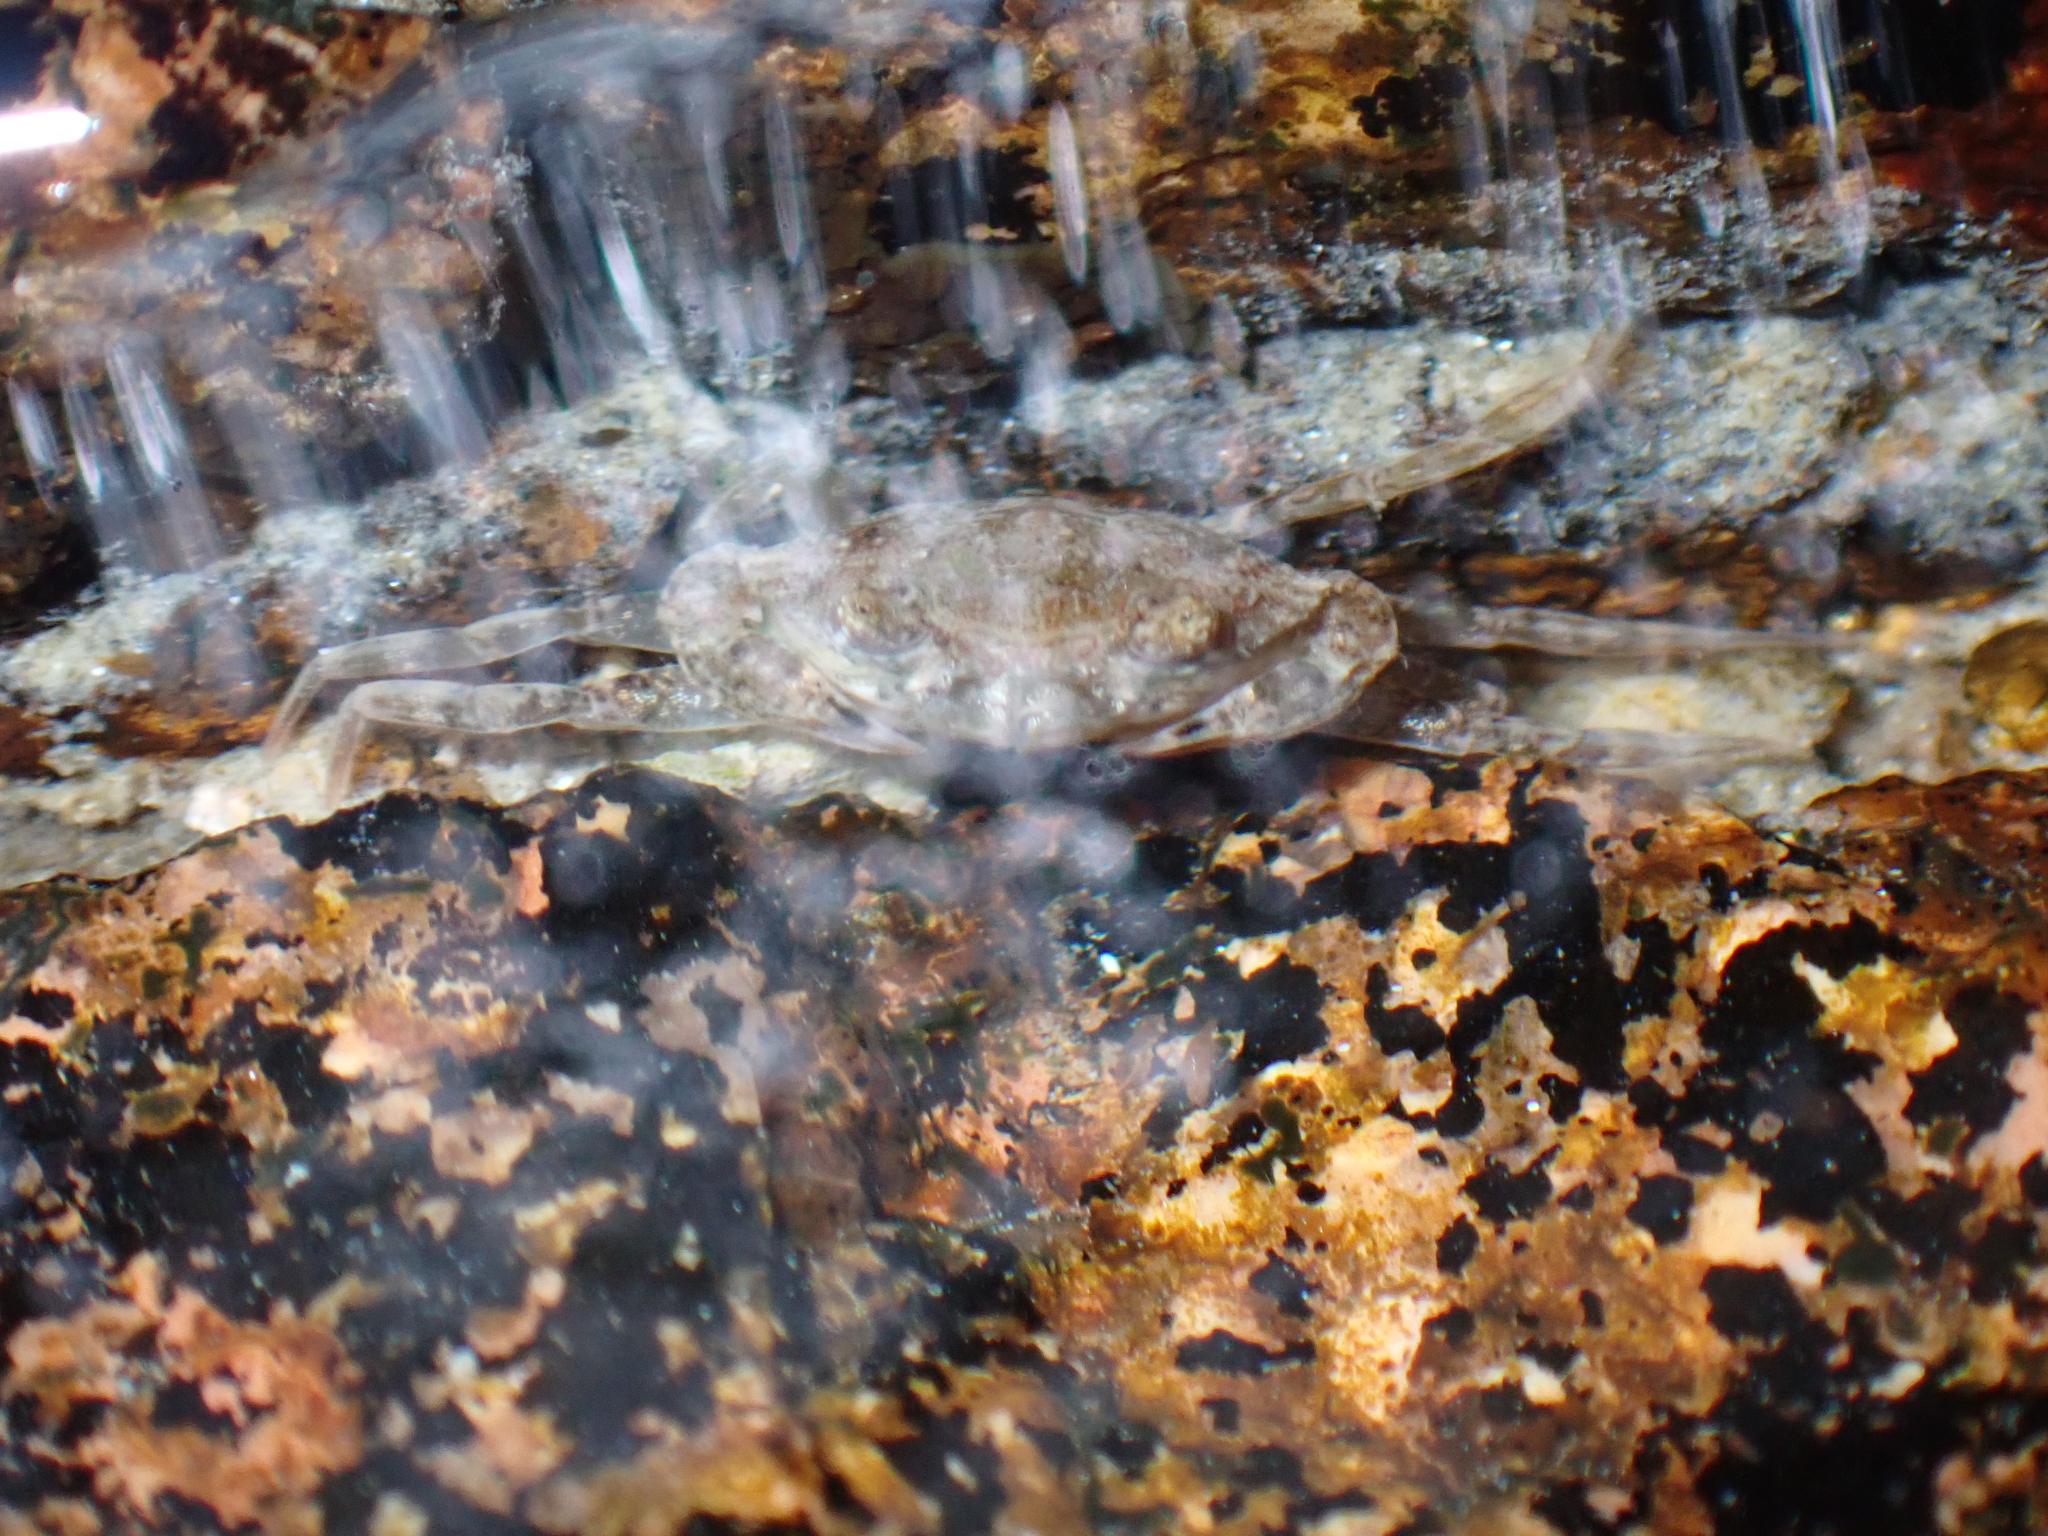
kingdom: Animalia
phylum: Arthropoda
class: Malacostraca
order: Decapoda
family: Carcinidae
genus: Carcinus
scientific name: Carcinus maenas
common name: European green crab
